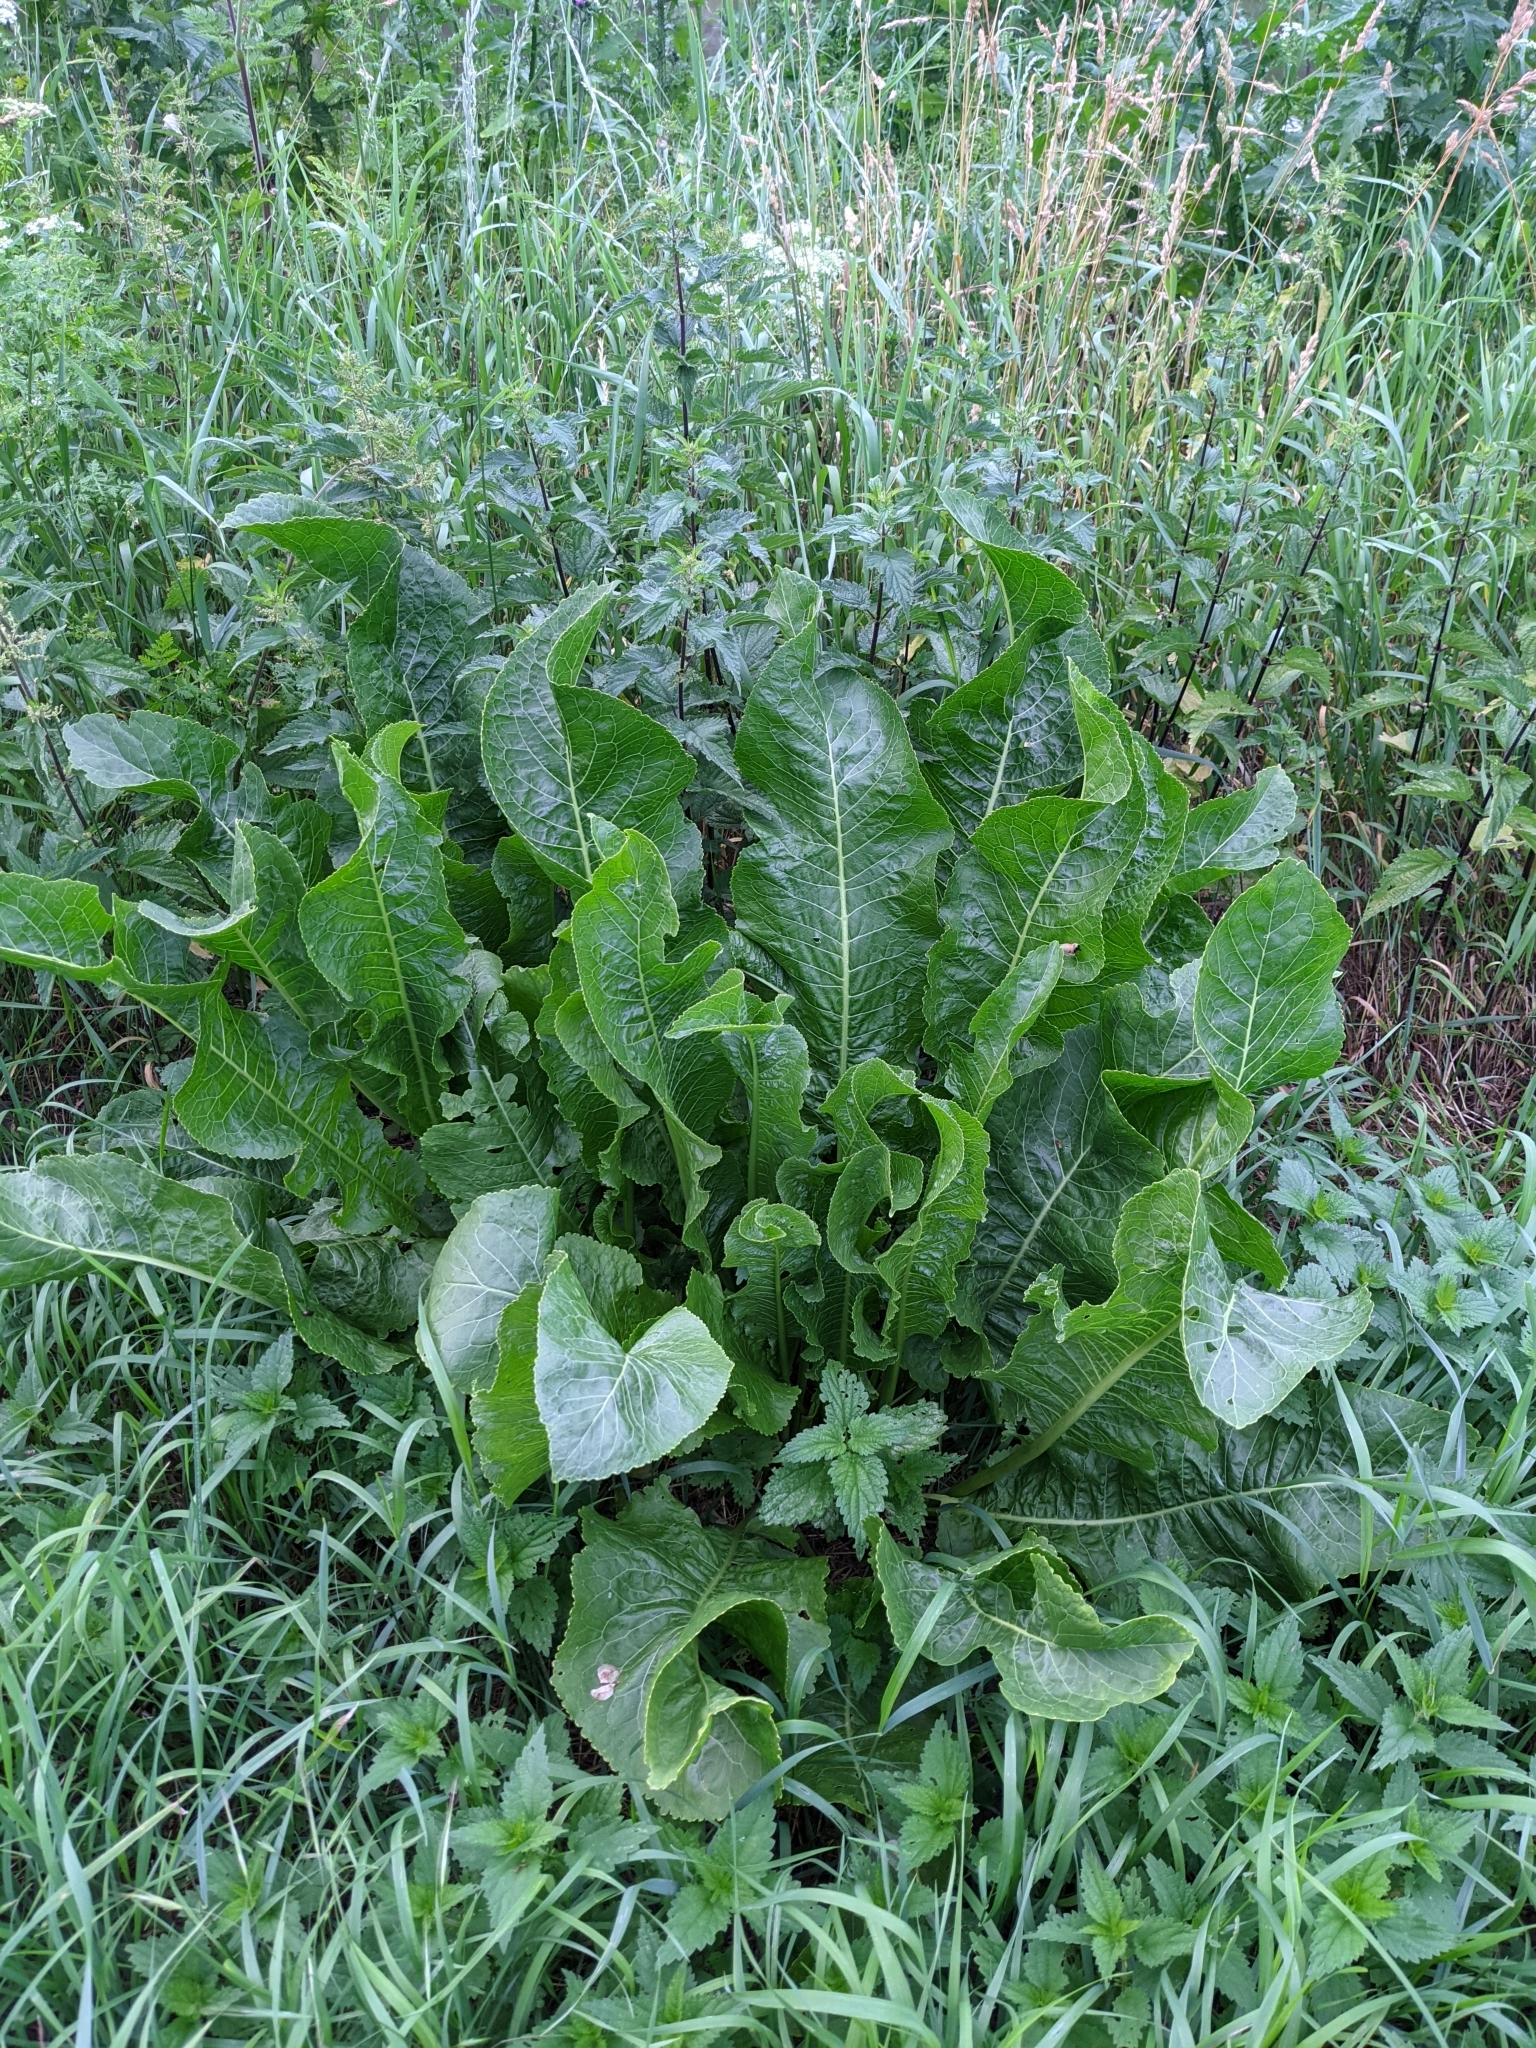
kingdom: Plantae
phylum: Tracheophyta
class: Magnoliopsida
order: Brassicales
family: Brassicaceae
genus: Armoracia
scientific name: Armoracia rusticana
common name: Horseradish
